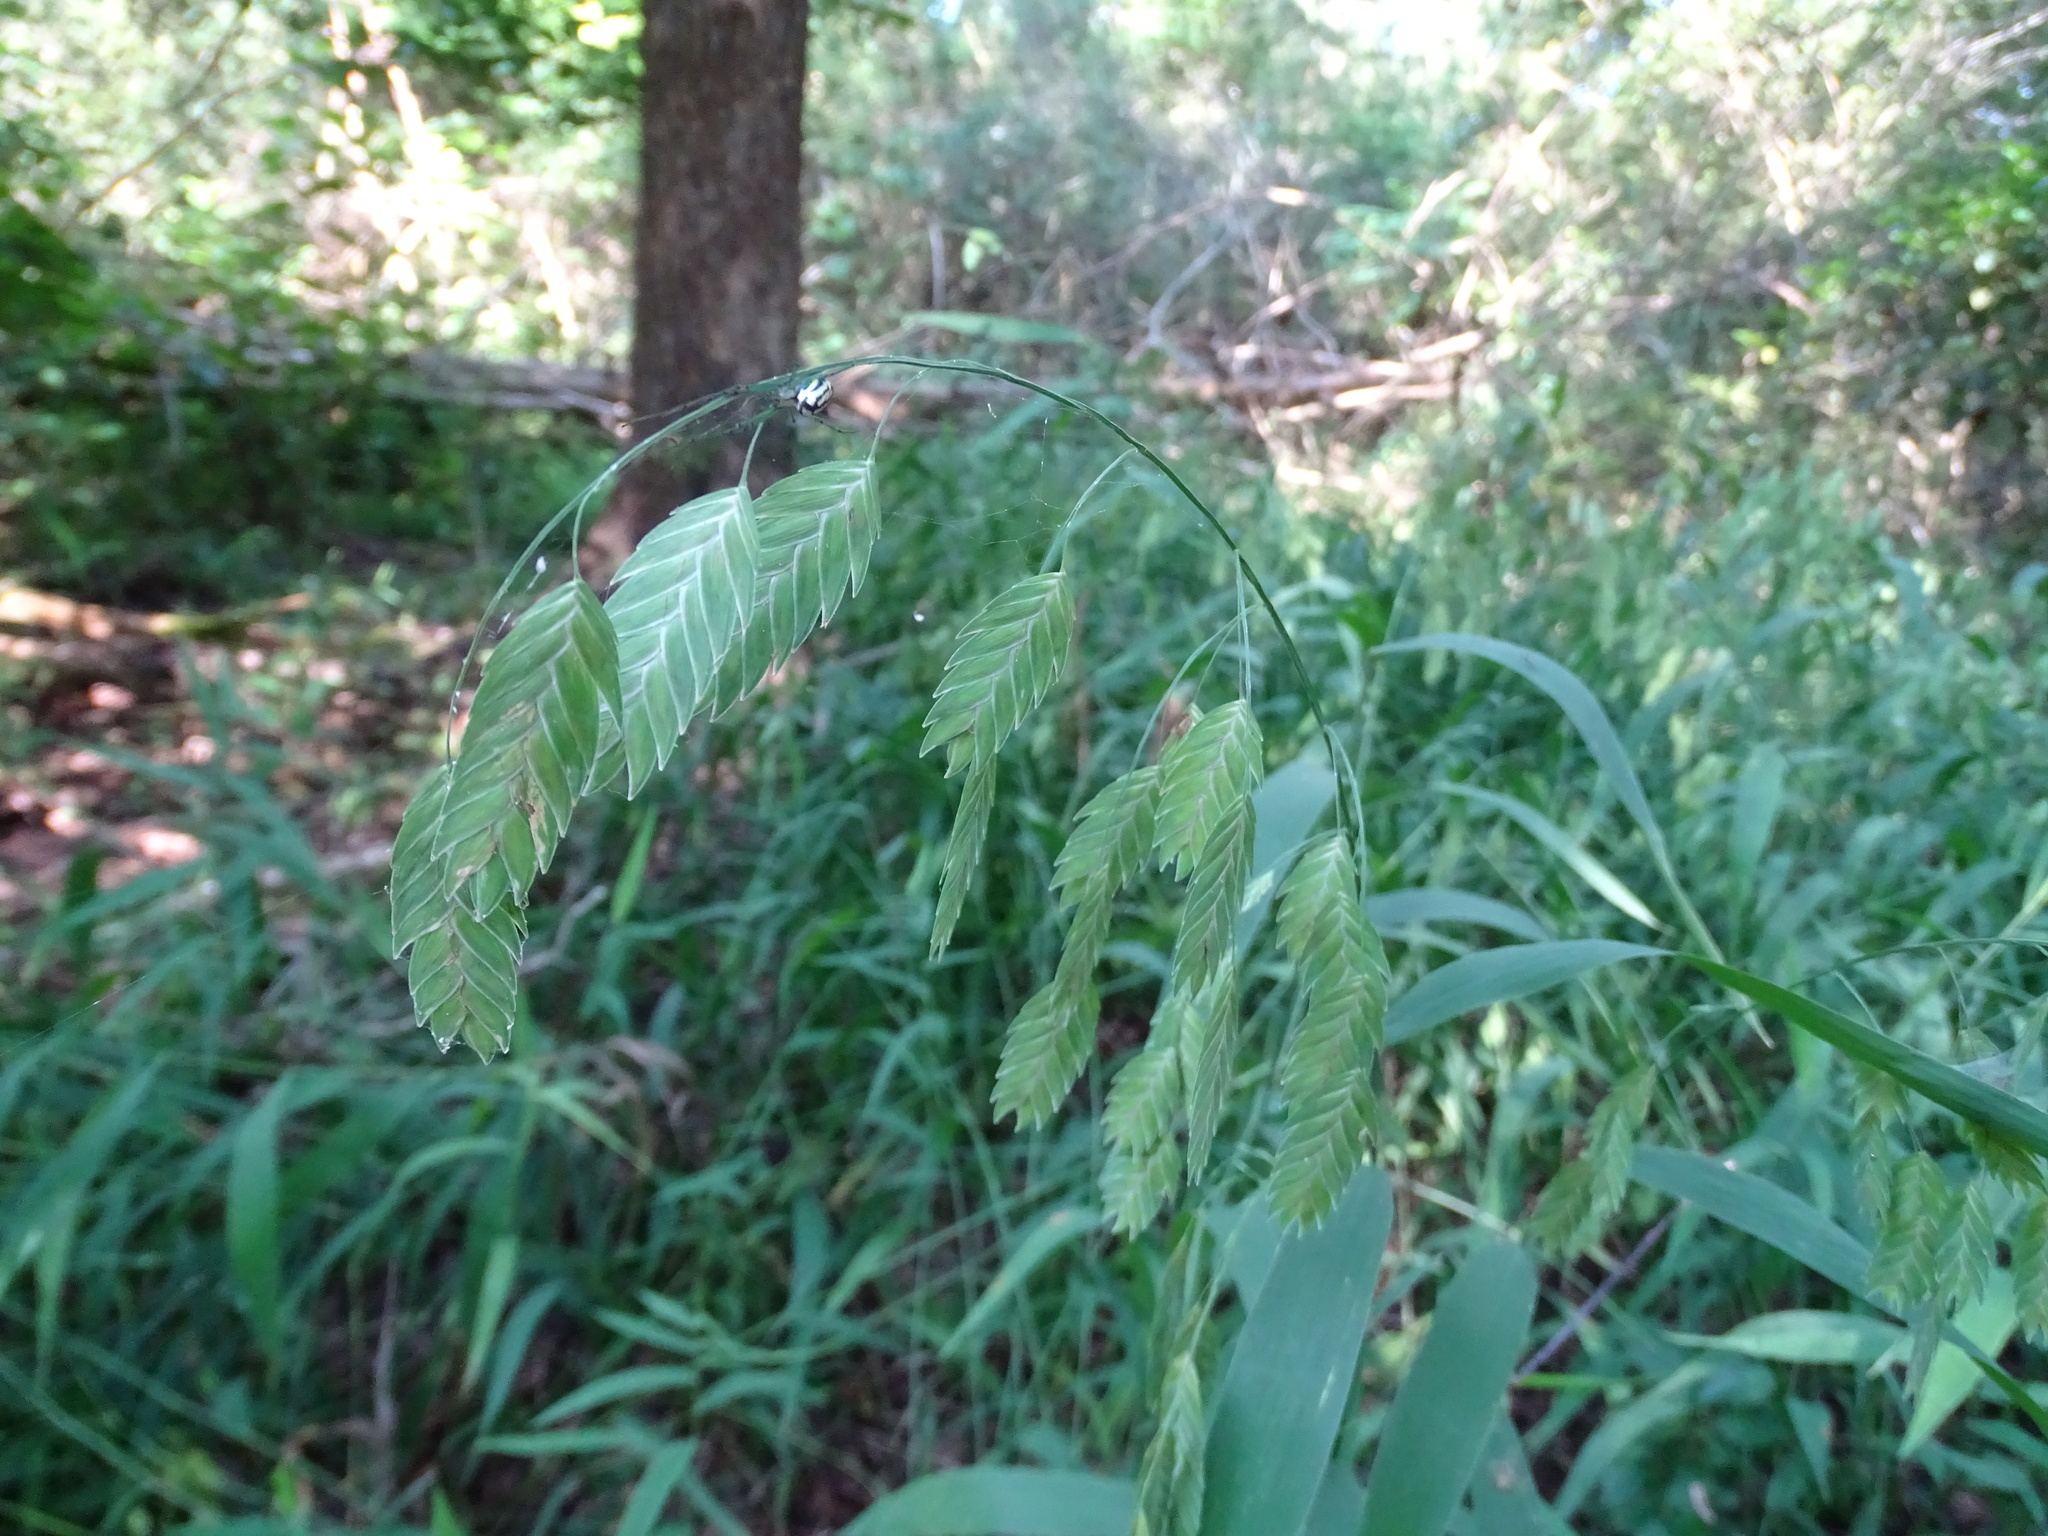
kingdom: Plantae
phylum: Tracheophyta
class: Liliopsida
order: Poales
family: Poaceae
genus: Chasmanthium
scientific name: Chasmanthium latifolium
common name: Broad-leaved chasmanthium
